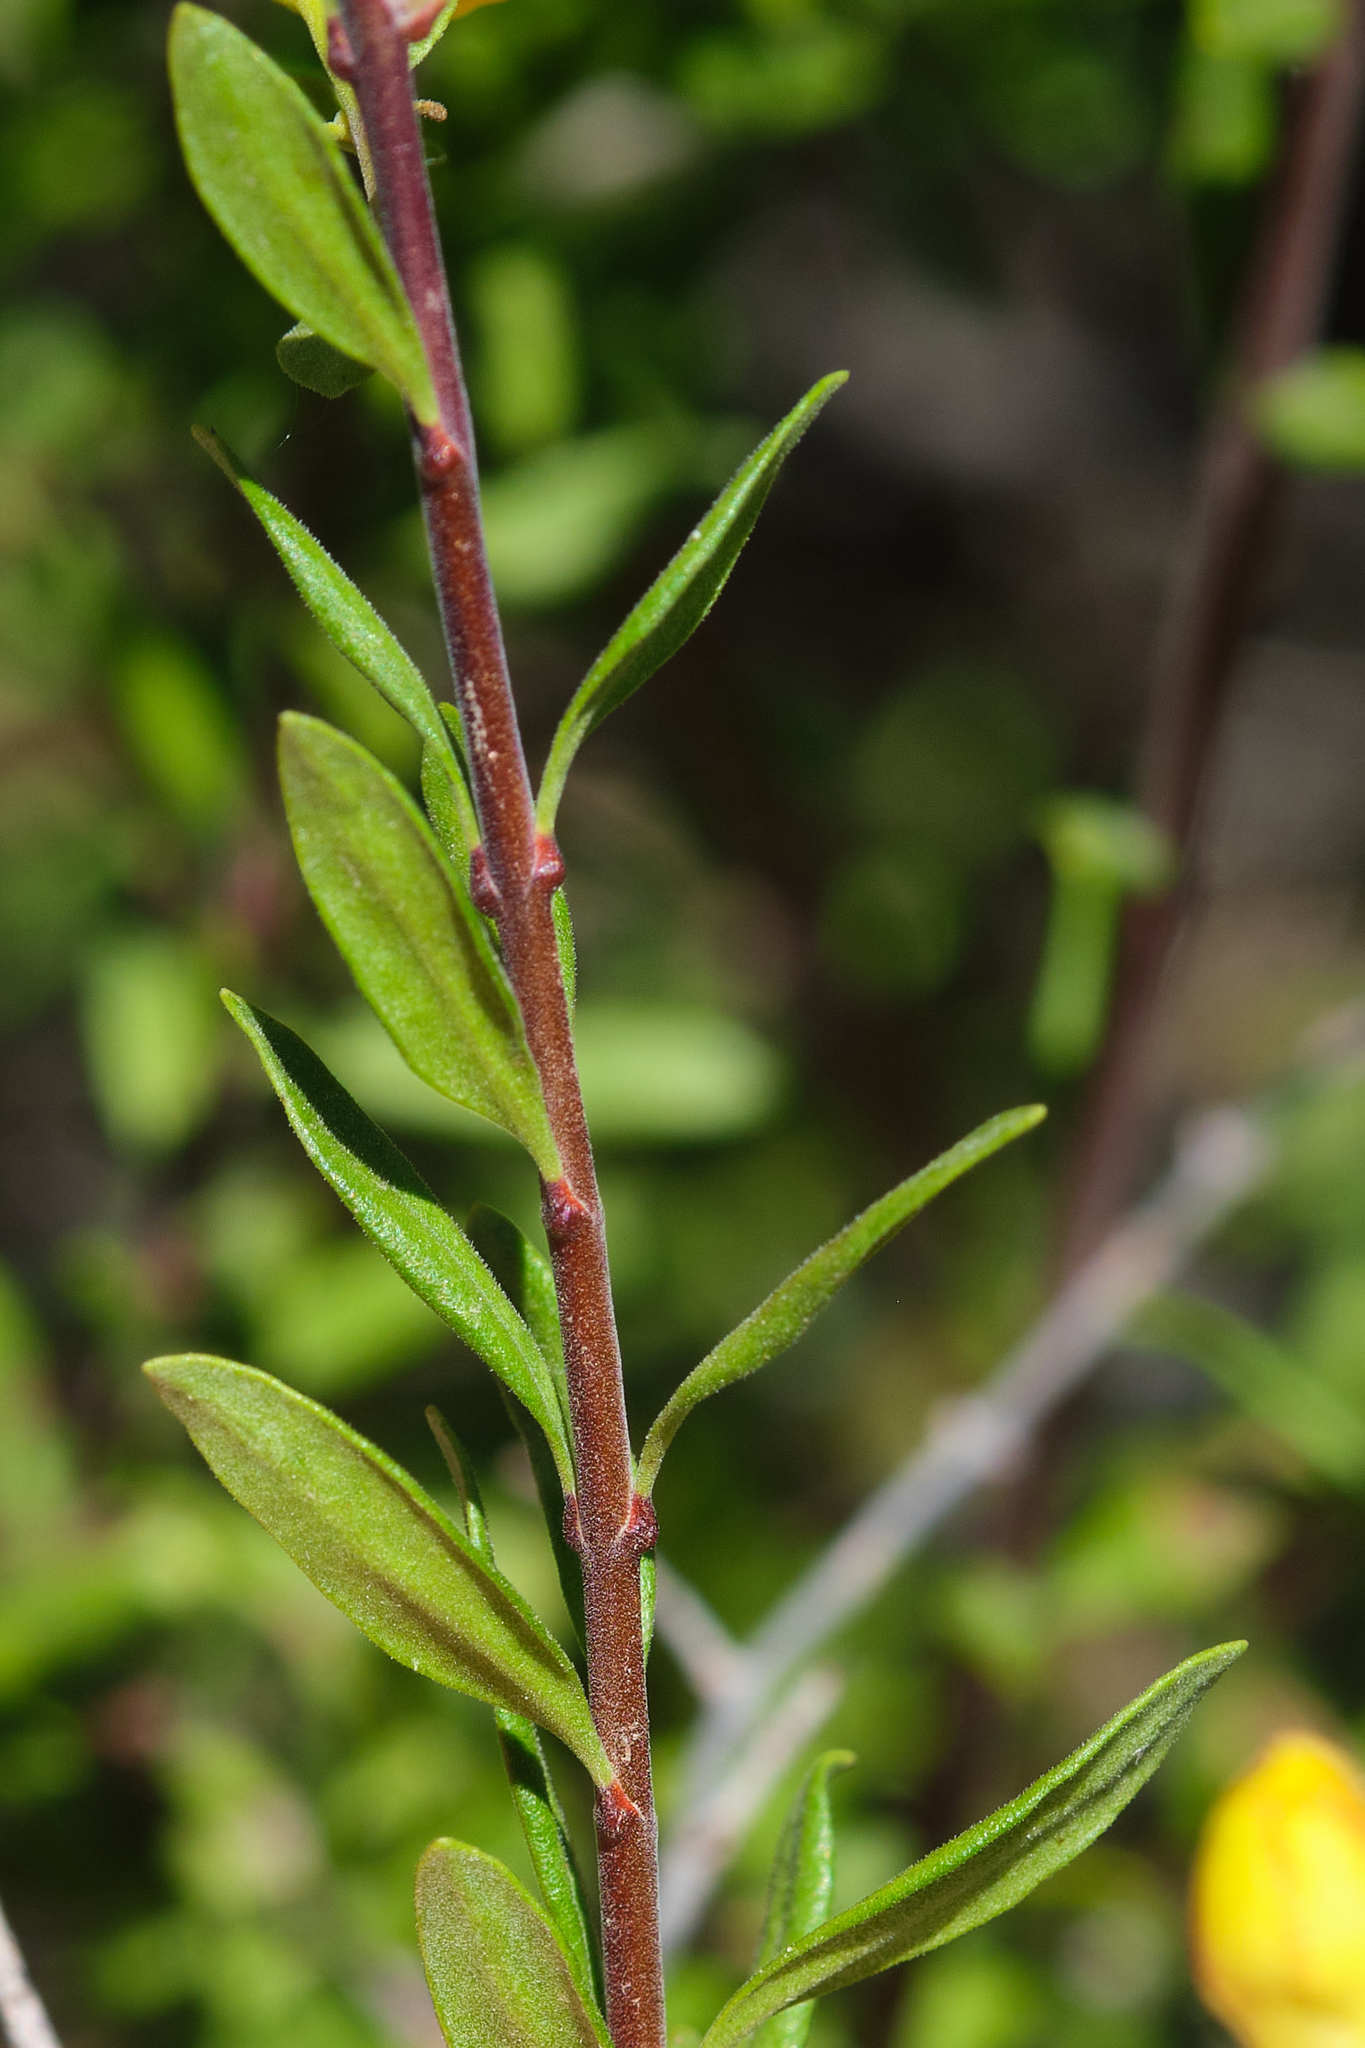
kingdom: Plantae
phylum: Tracheophyta
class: Magnoliopsida
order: Lamiales
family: Plantaginaceae
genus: Keckiella
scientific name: Keckiella antirrhinoides
